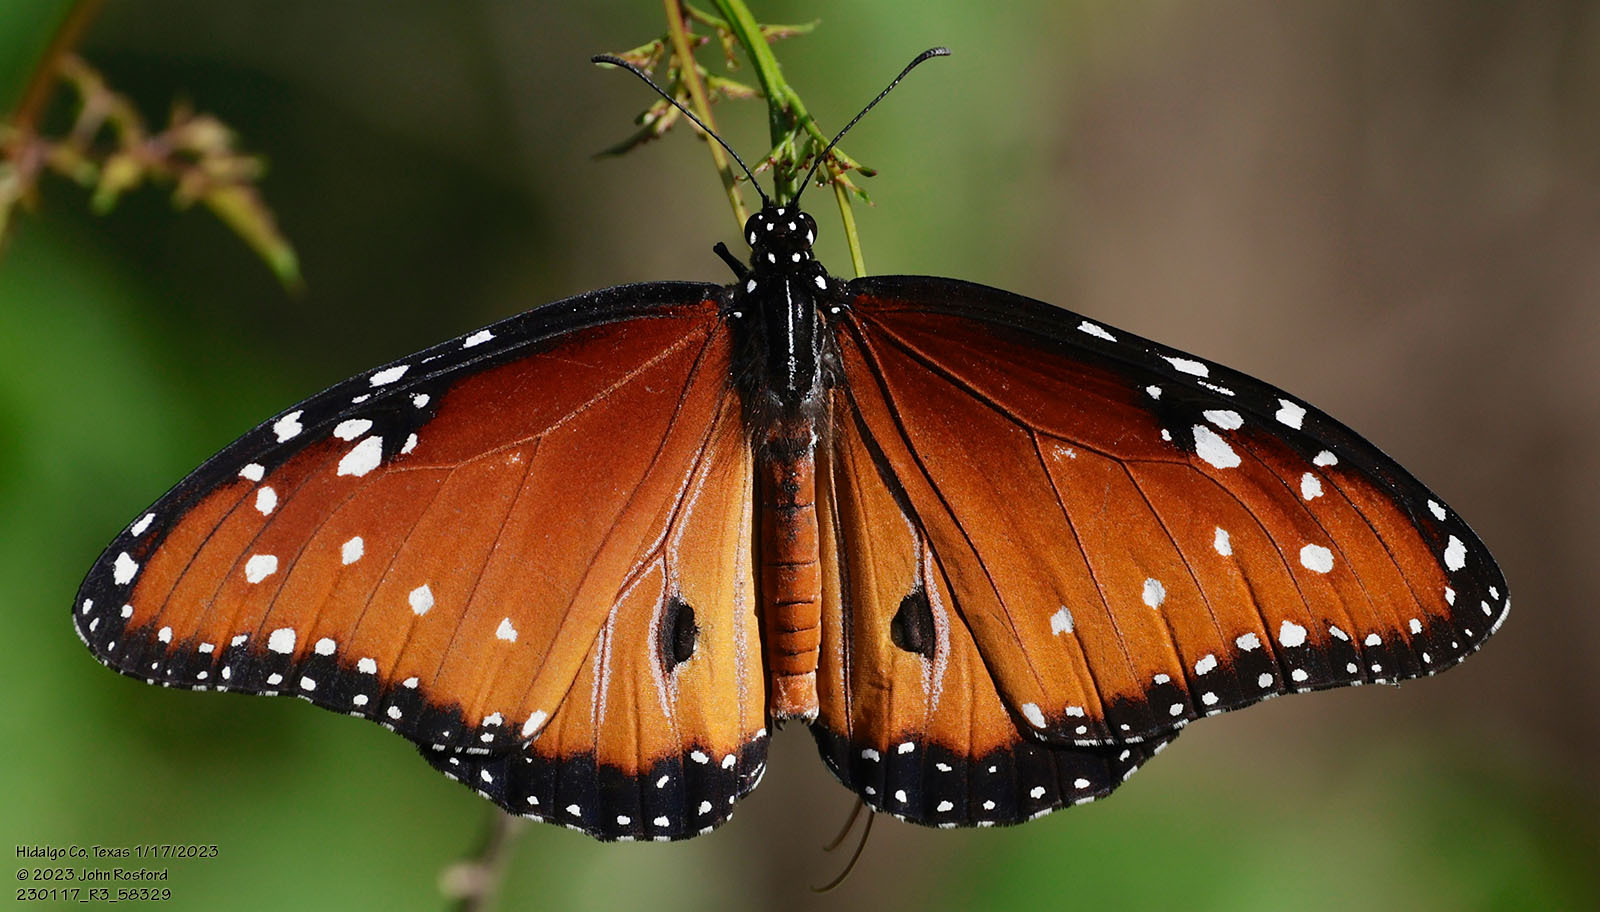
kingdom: Animalia
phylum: Arthropoda
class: Insecta
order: Lepidoptera
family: Nymphalidae
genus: Danaus
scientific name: Danaus gilippus
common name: Queen
